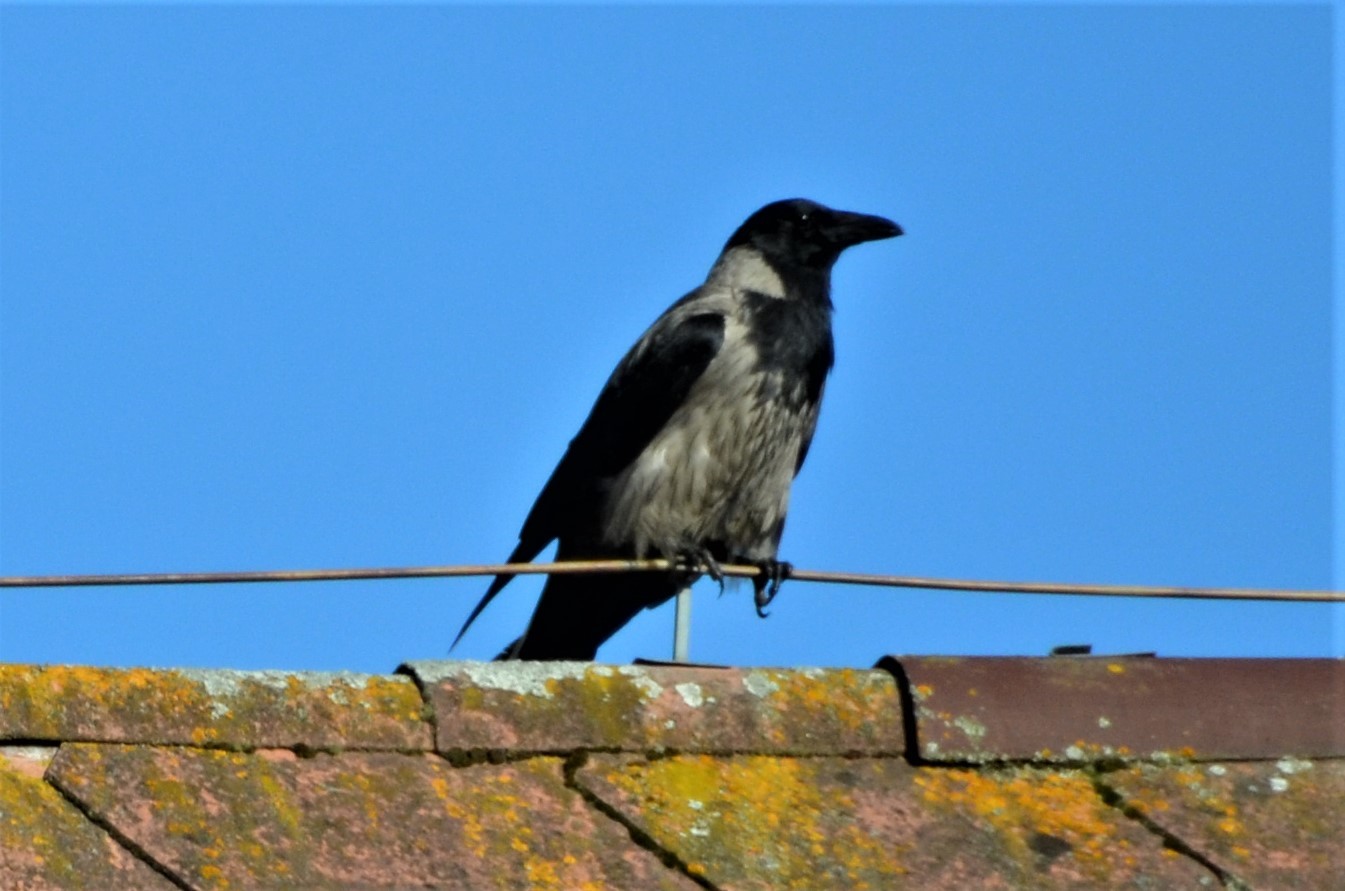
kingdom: Animalia
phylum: Chordata
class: Aves
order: Passeriformes
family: Corvidae
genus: Corvus
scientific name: Corvus
